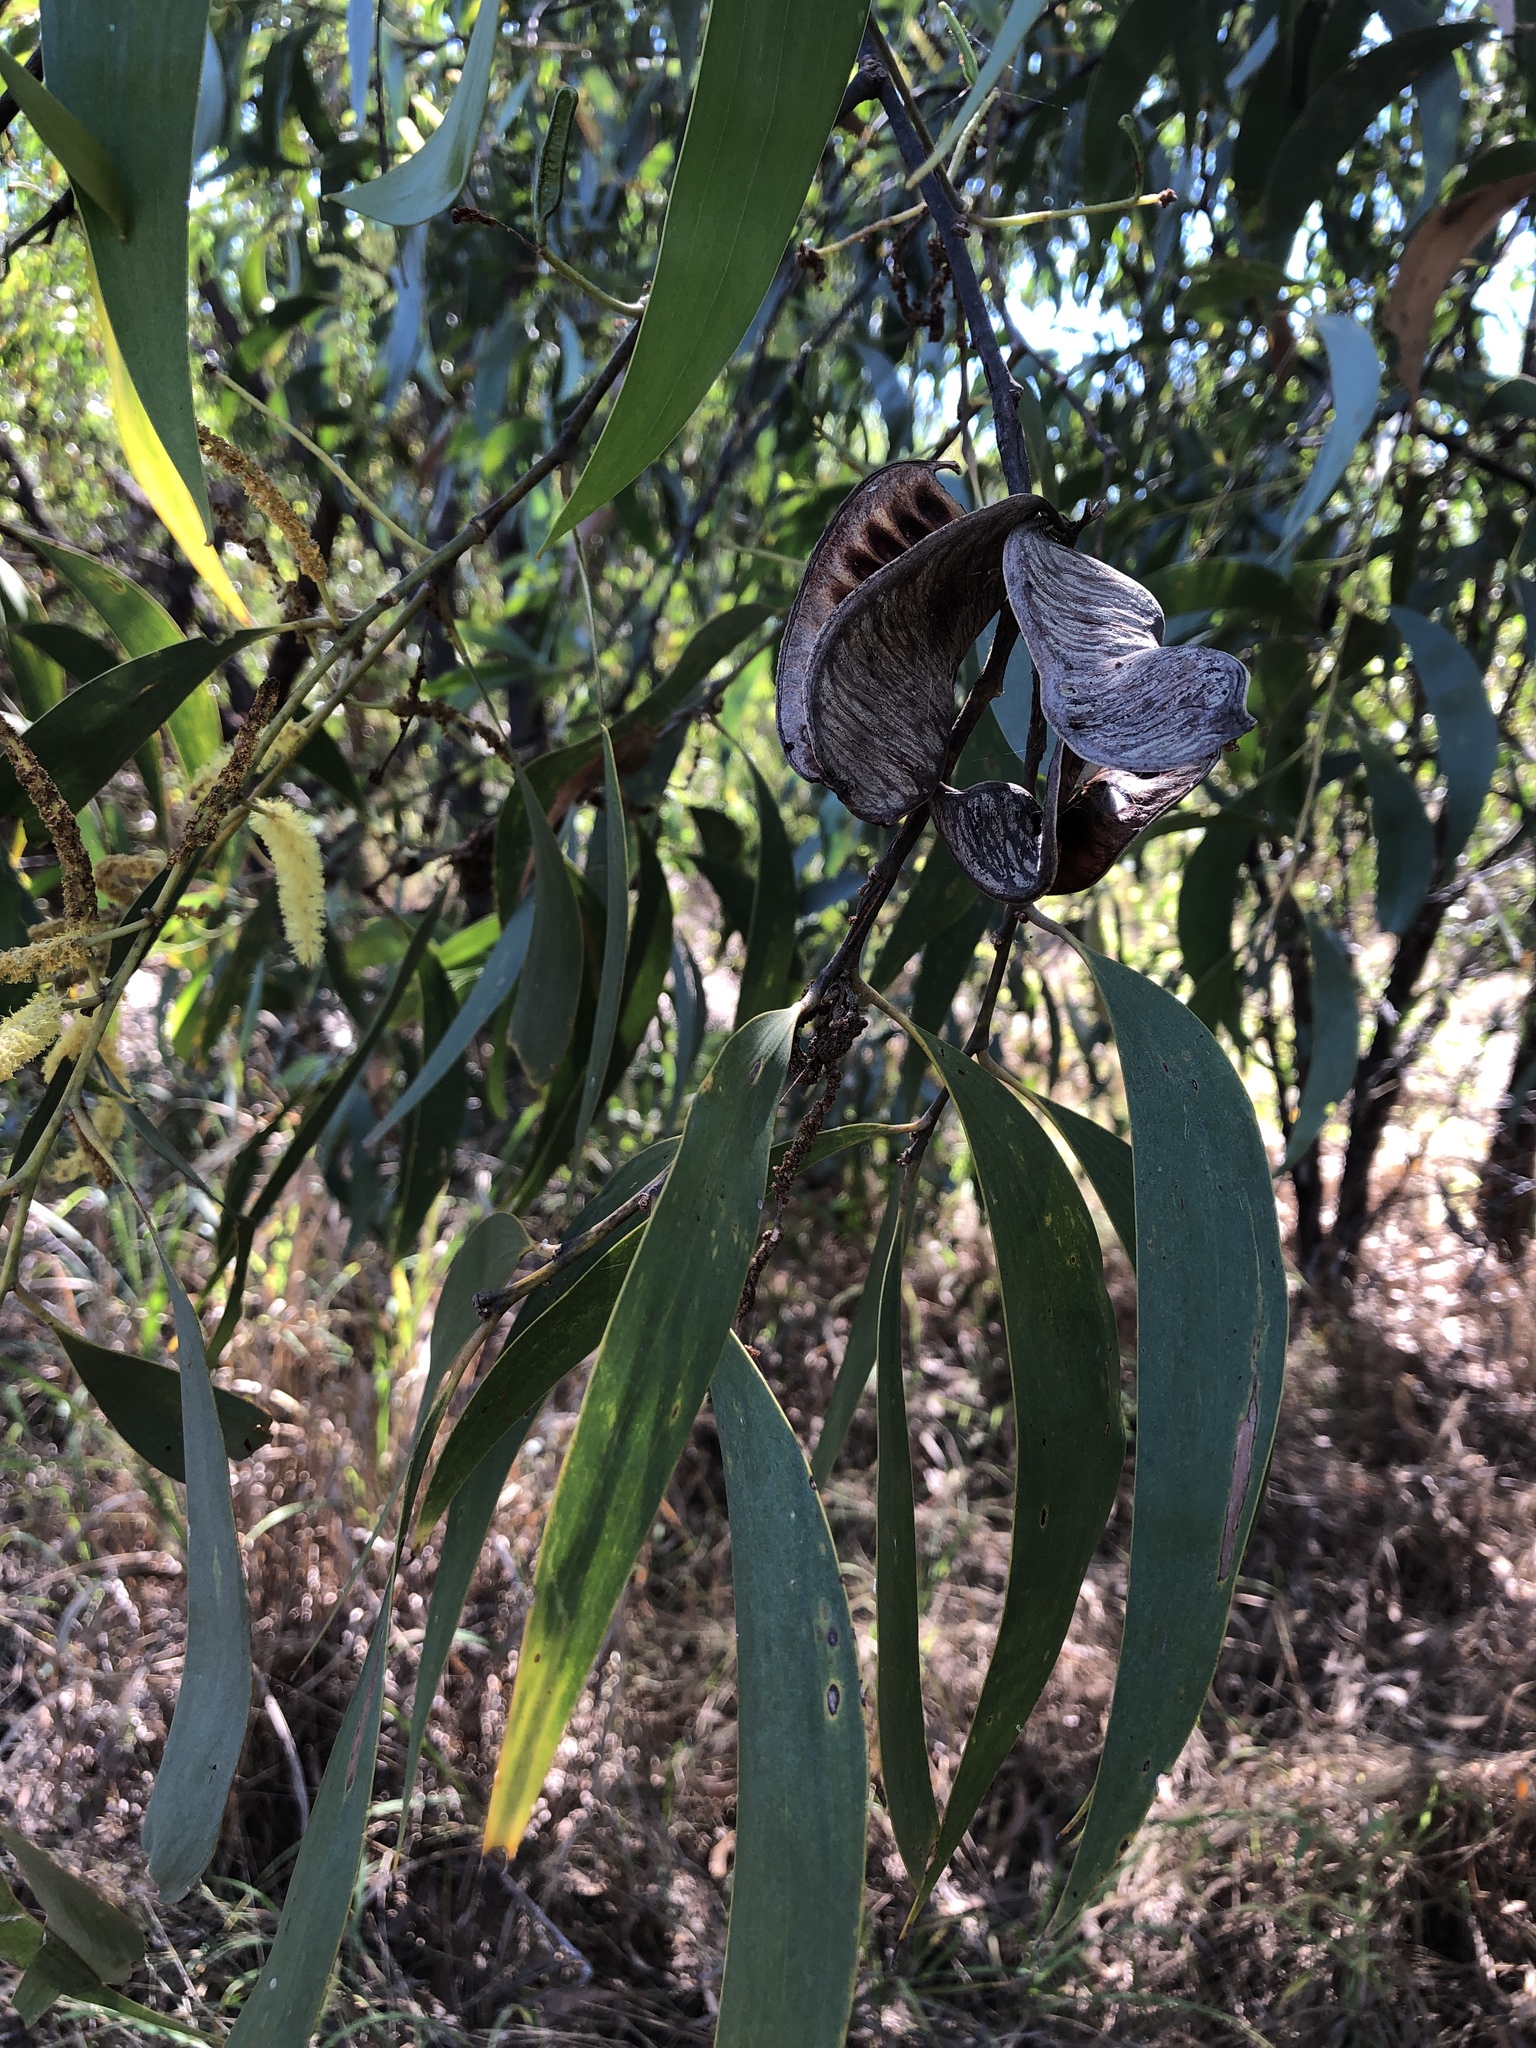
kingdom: Plantae
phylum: Tracheophyta
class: Magnoliopsida
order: Fabales
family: Fabaceae
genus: Acacia
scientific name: Acacia crassicarpa
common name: Northern wattle
